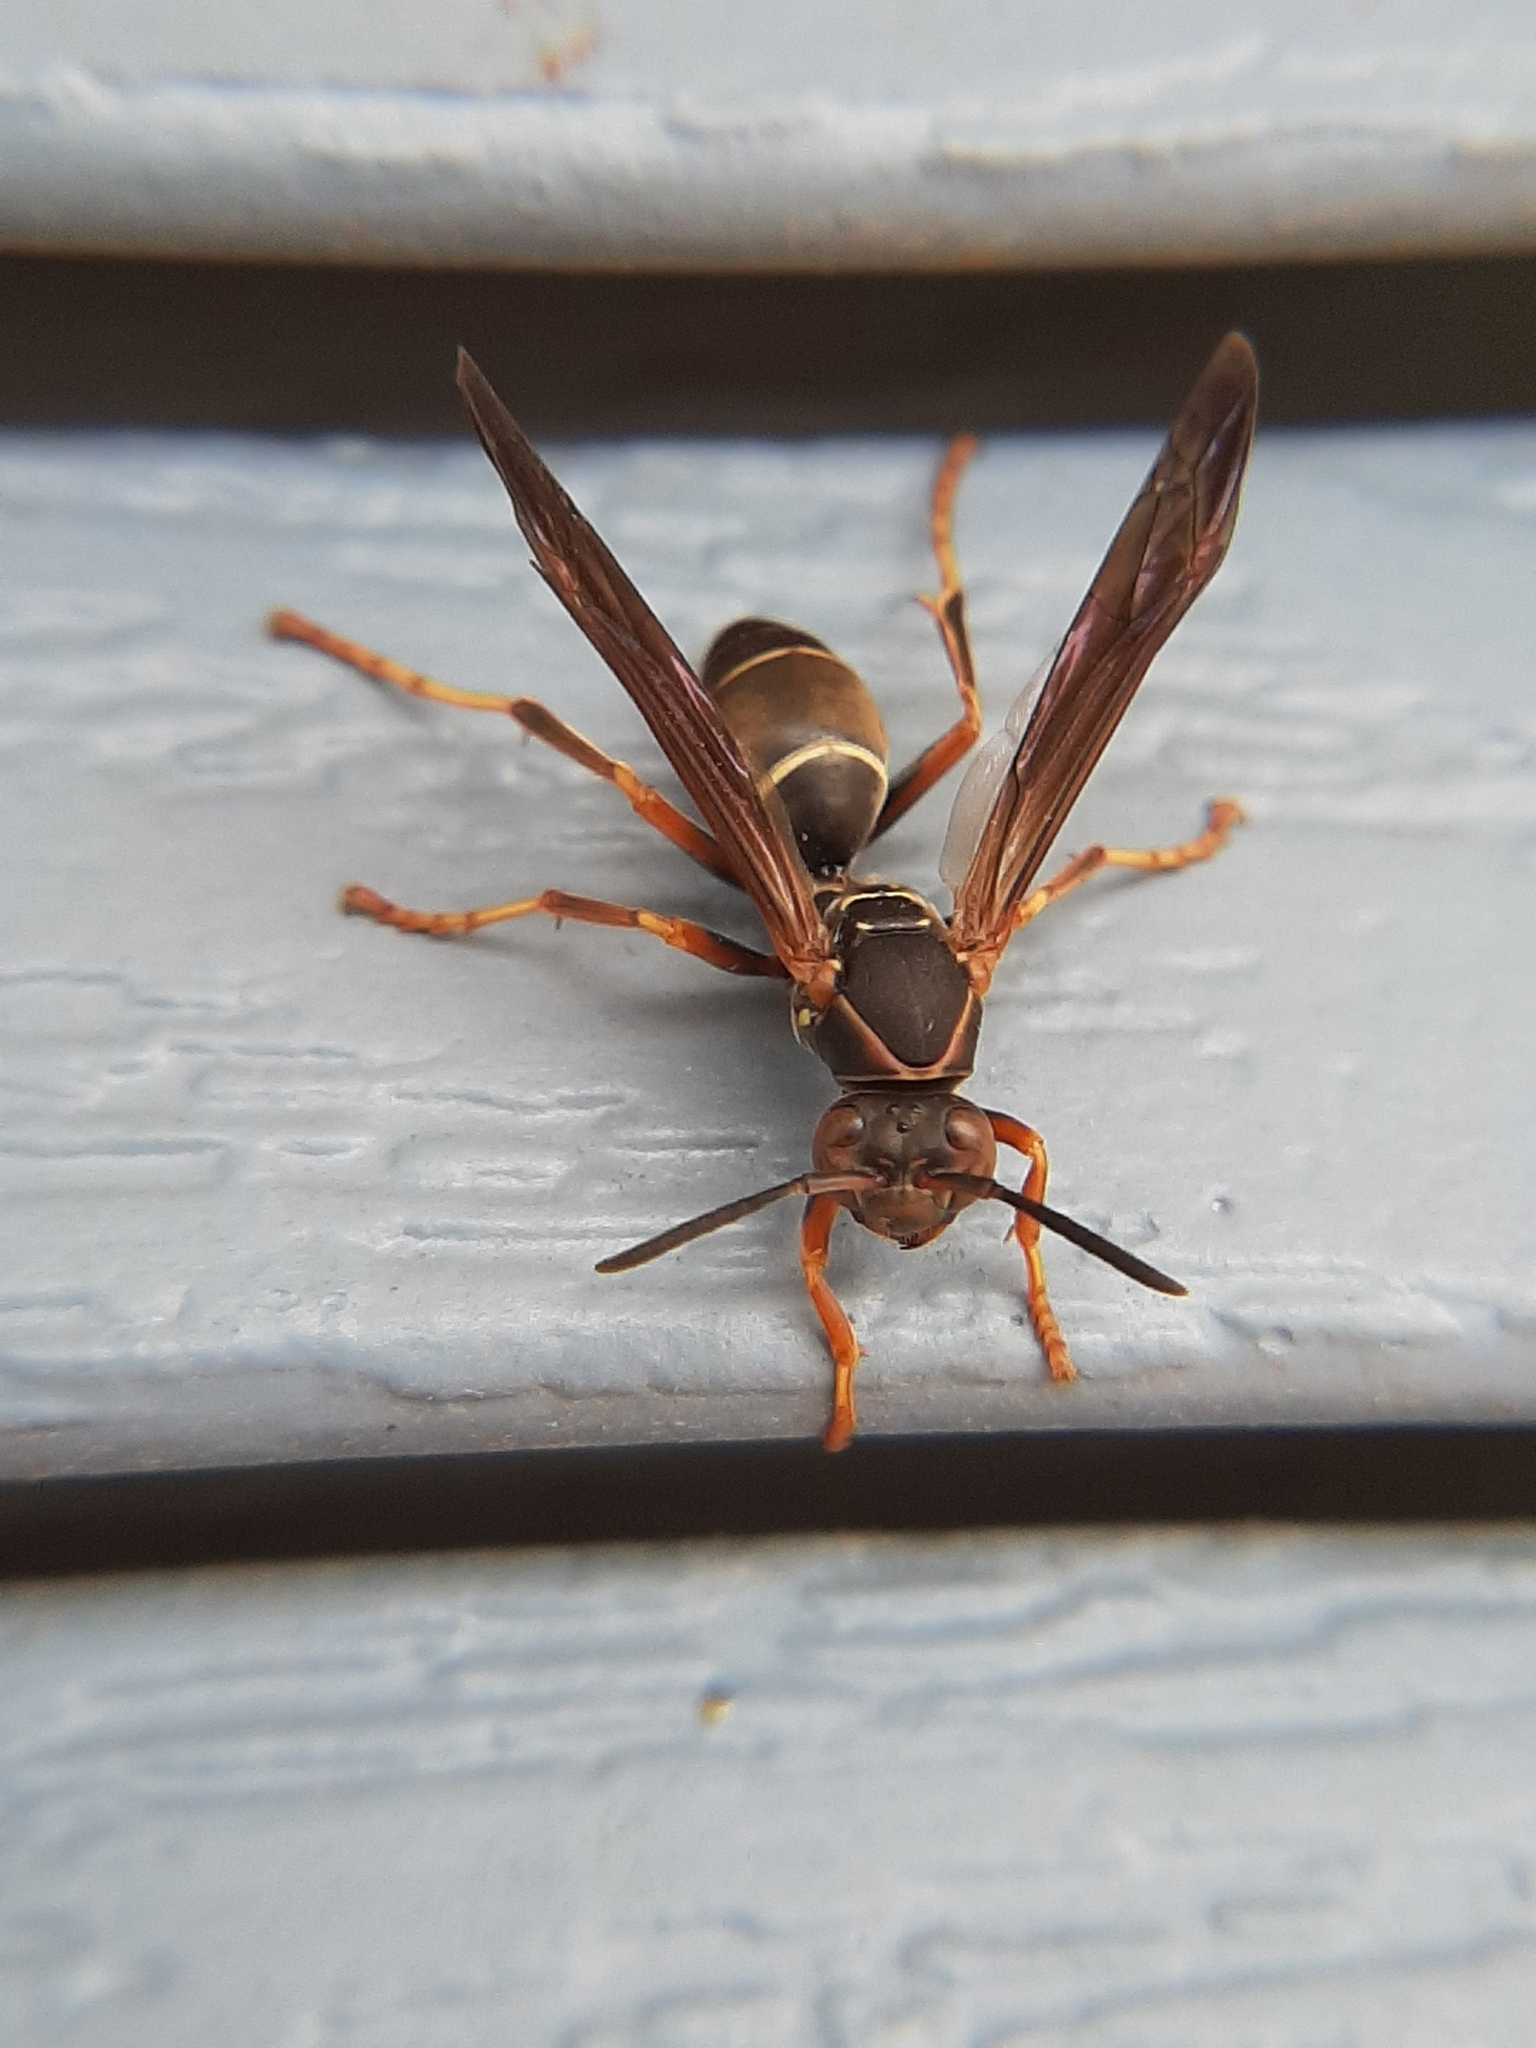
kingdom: Animalia
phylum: Arthropoda
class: Insecta
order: Hymenoptera
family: Eumenidae
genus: Polistes
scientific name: Polistes fuscatus
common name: Dark paper wasp
